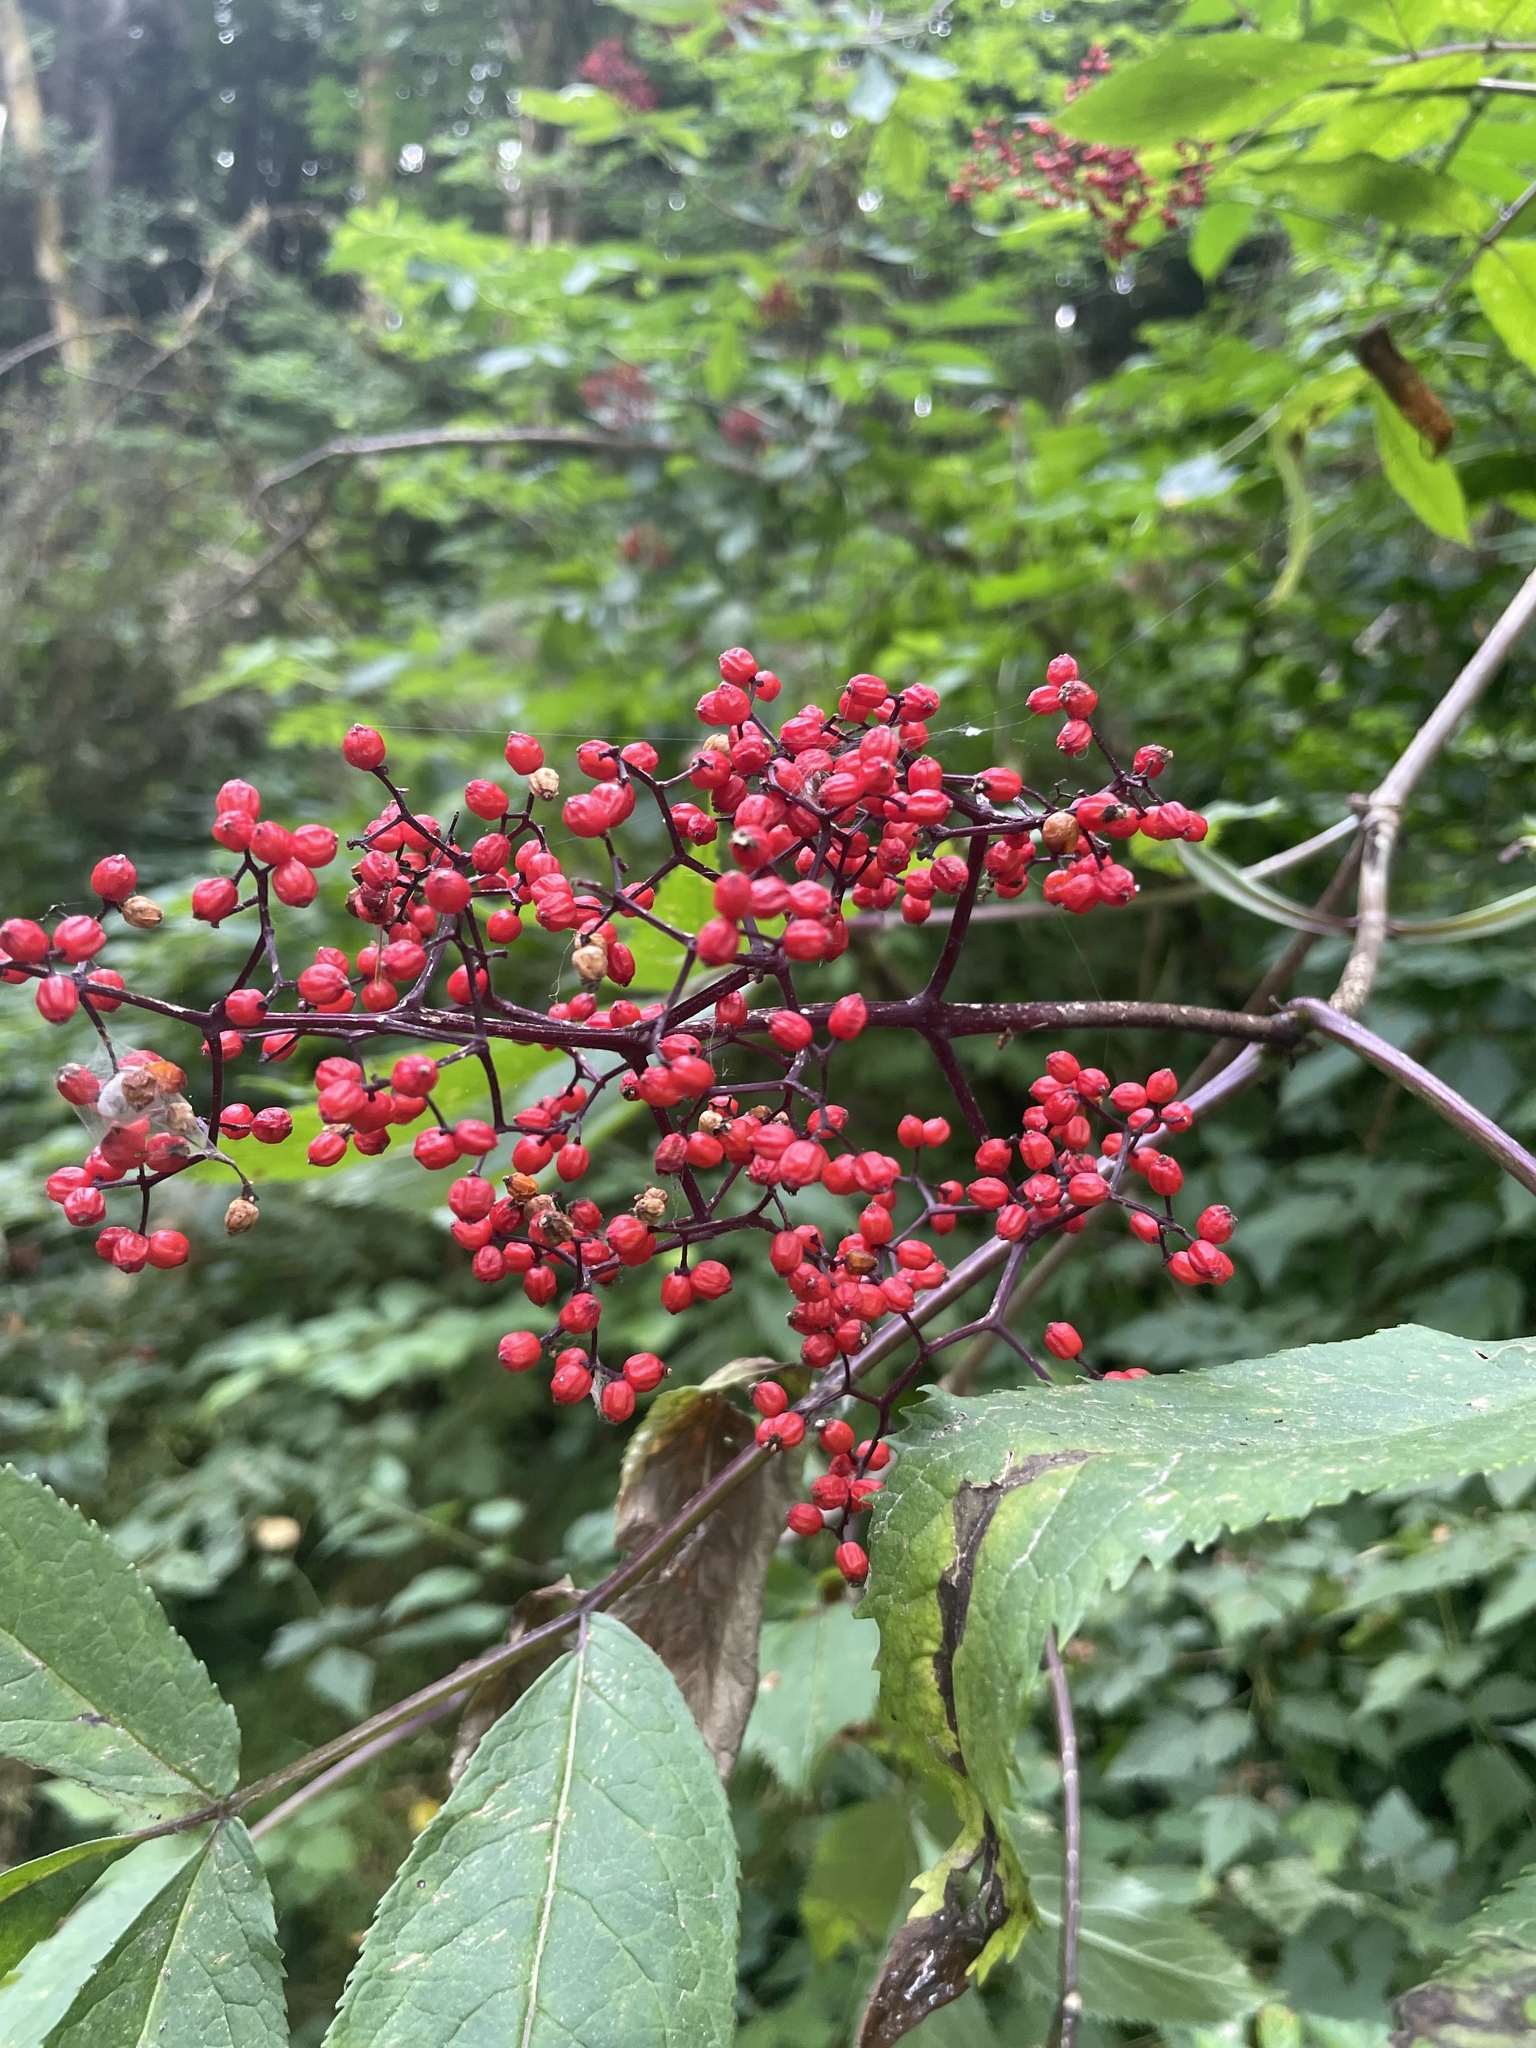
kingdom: Plantae
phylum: Tracheophyta
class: Magnoliopsida
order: Dipsacales
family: Viburnaceae
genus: Sambucus
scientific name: Sambucus racemosa
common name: Red-berried elder
